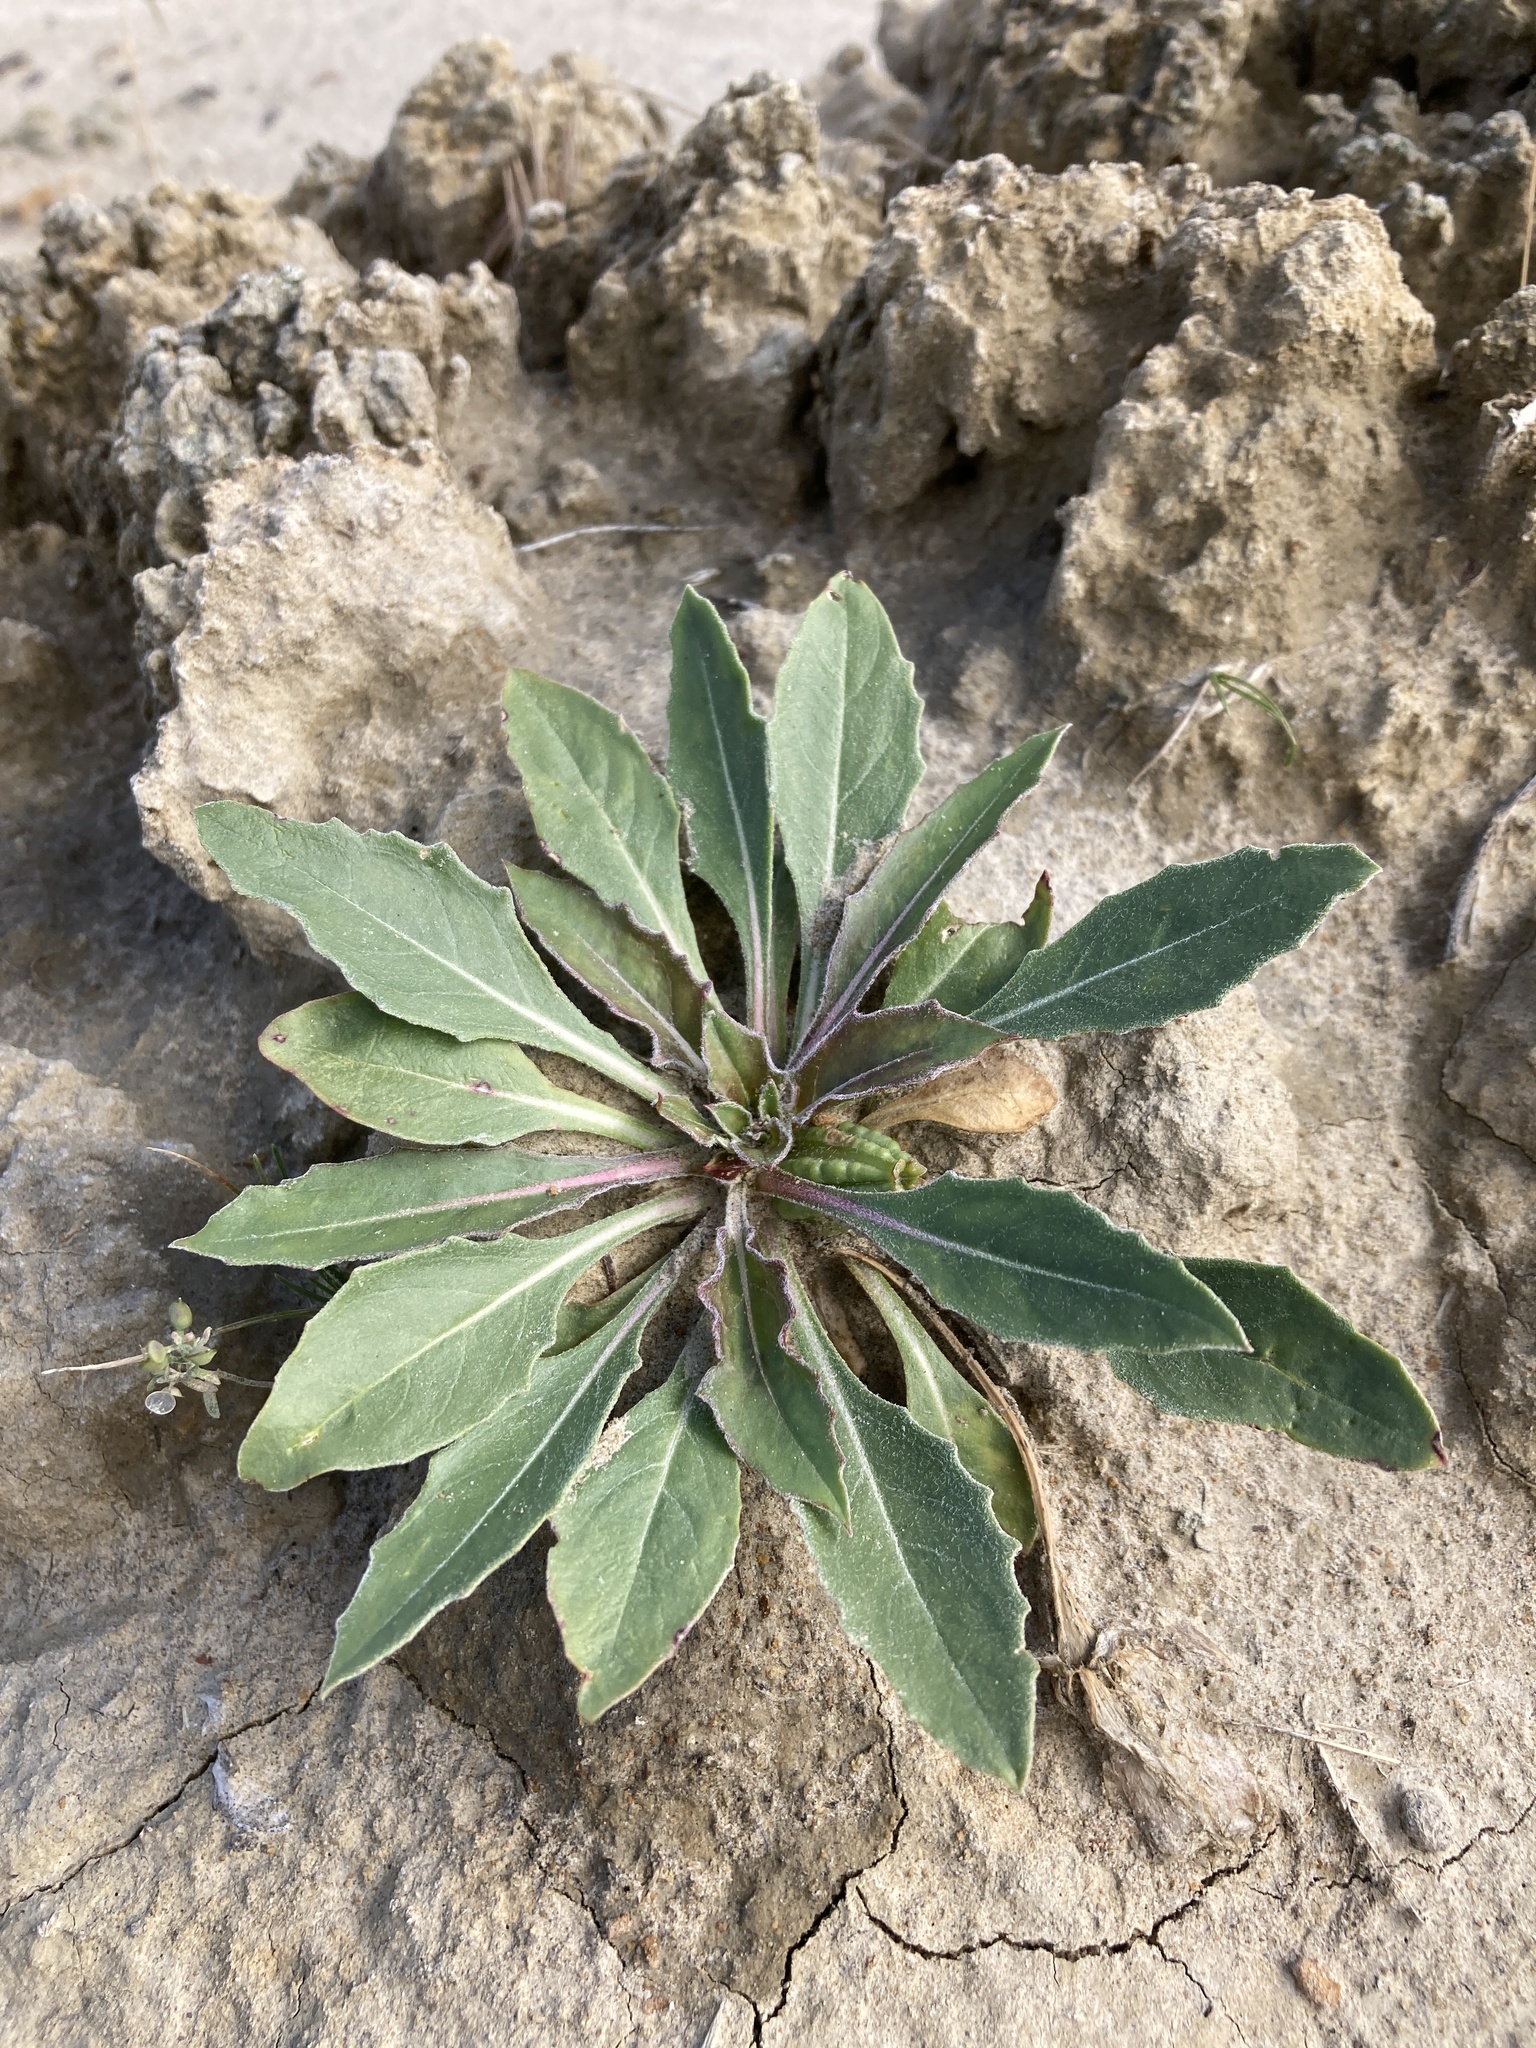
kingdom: Plantae
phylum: Tracheophyta
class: Magnoliopsida
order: Myrtales
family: Onagraceae
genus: Oenothera
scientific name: Oenothera cespitosa
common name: Tufted evening-primrose
